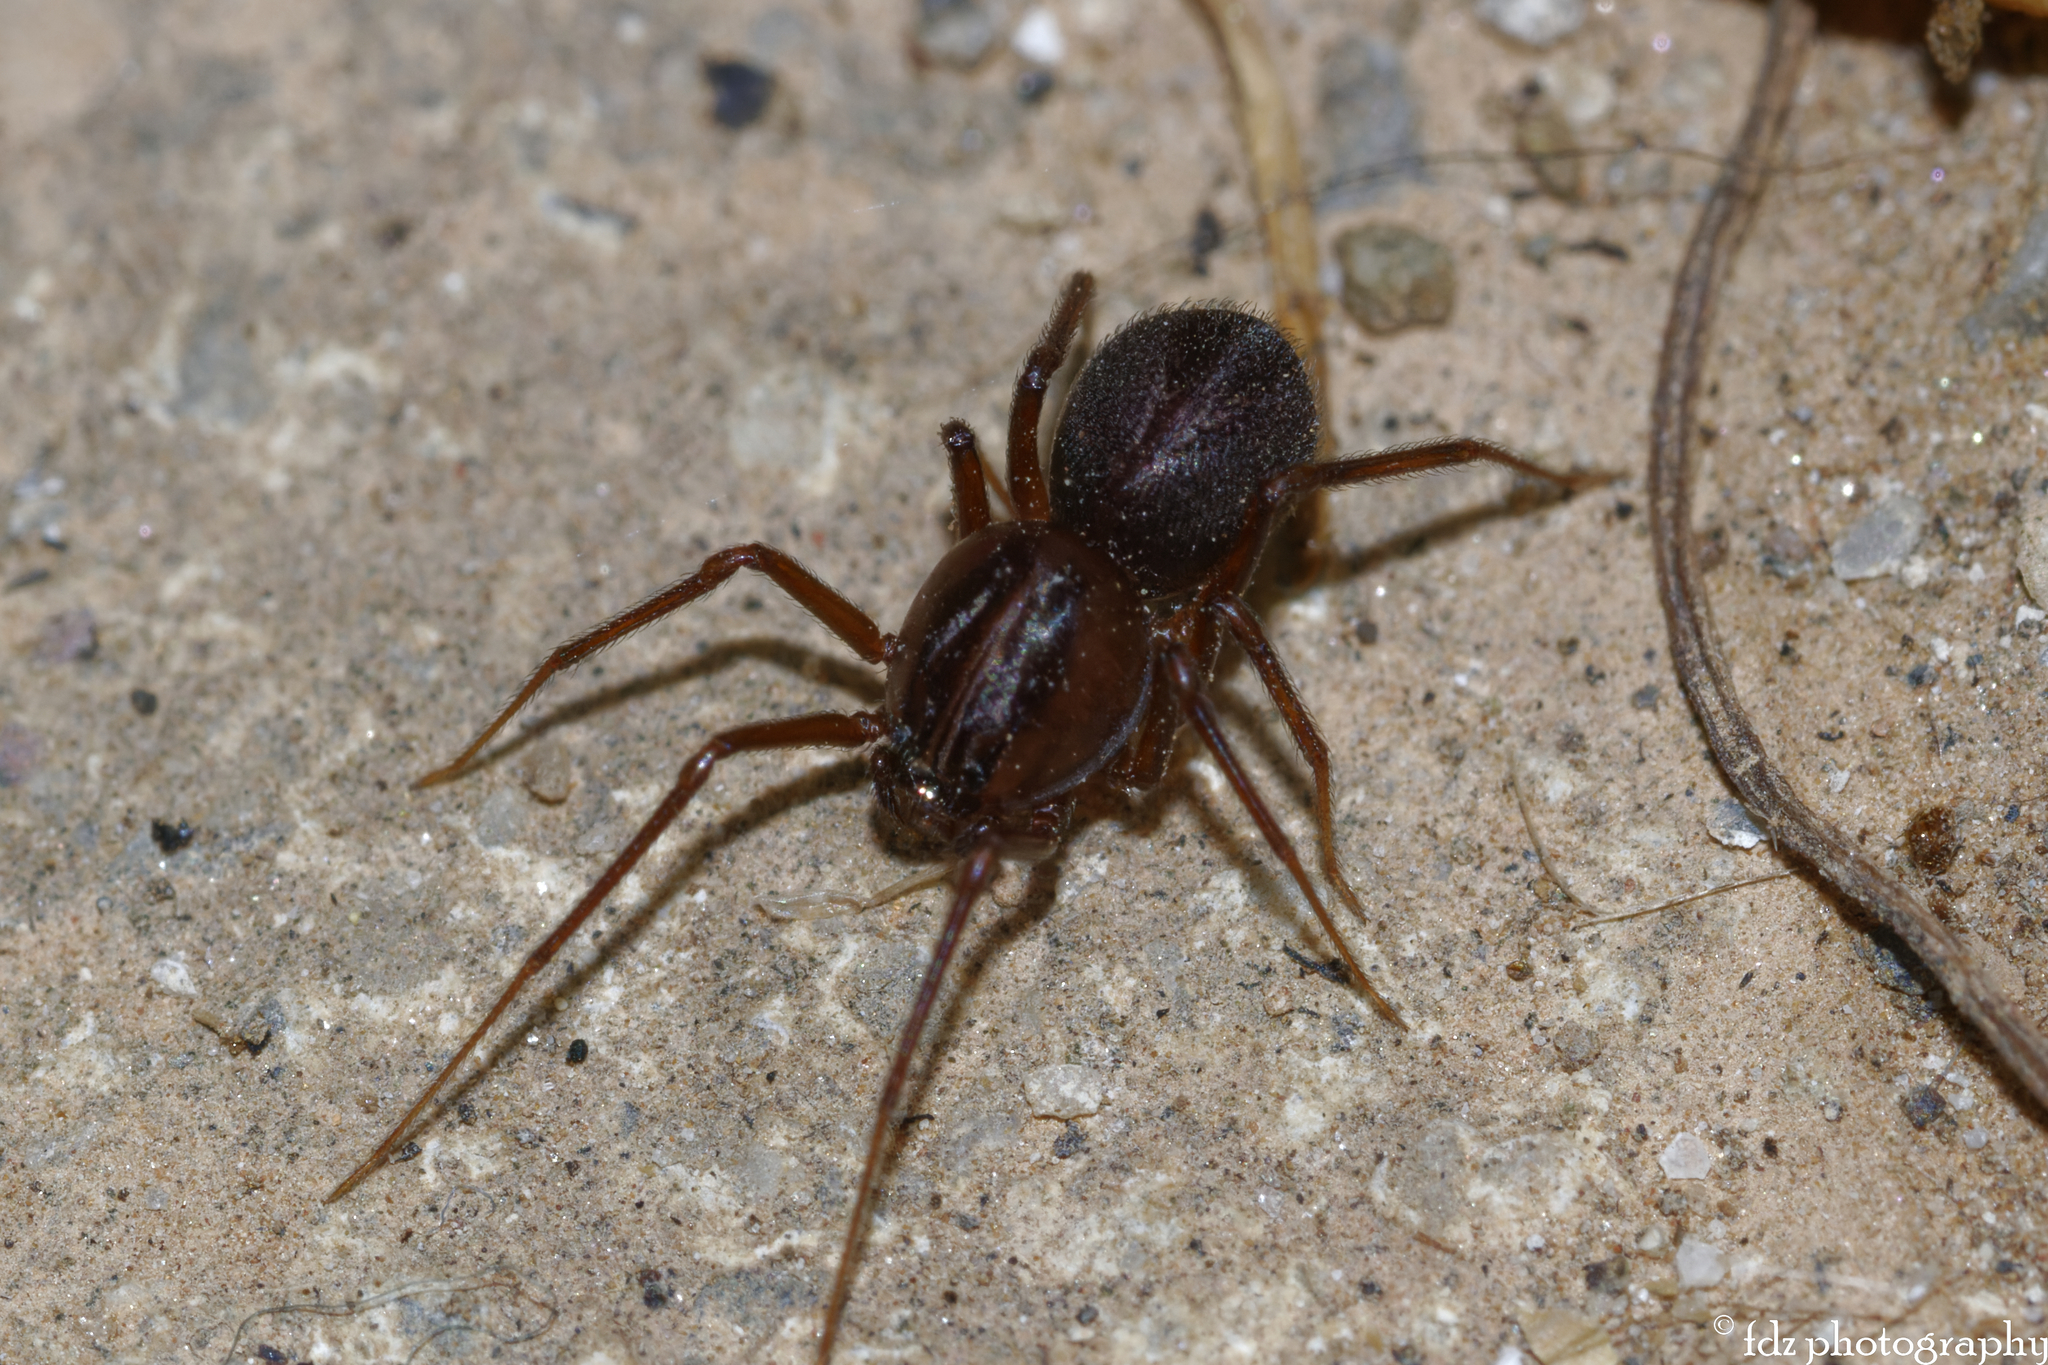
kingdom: Animalia
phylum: Arthropoda
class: Arachnida
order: Araneae
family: Scytodidae
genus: Scytodes
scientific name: Scytodes velutina
